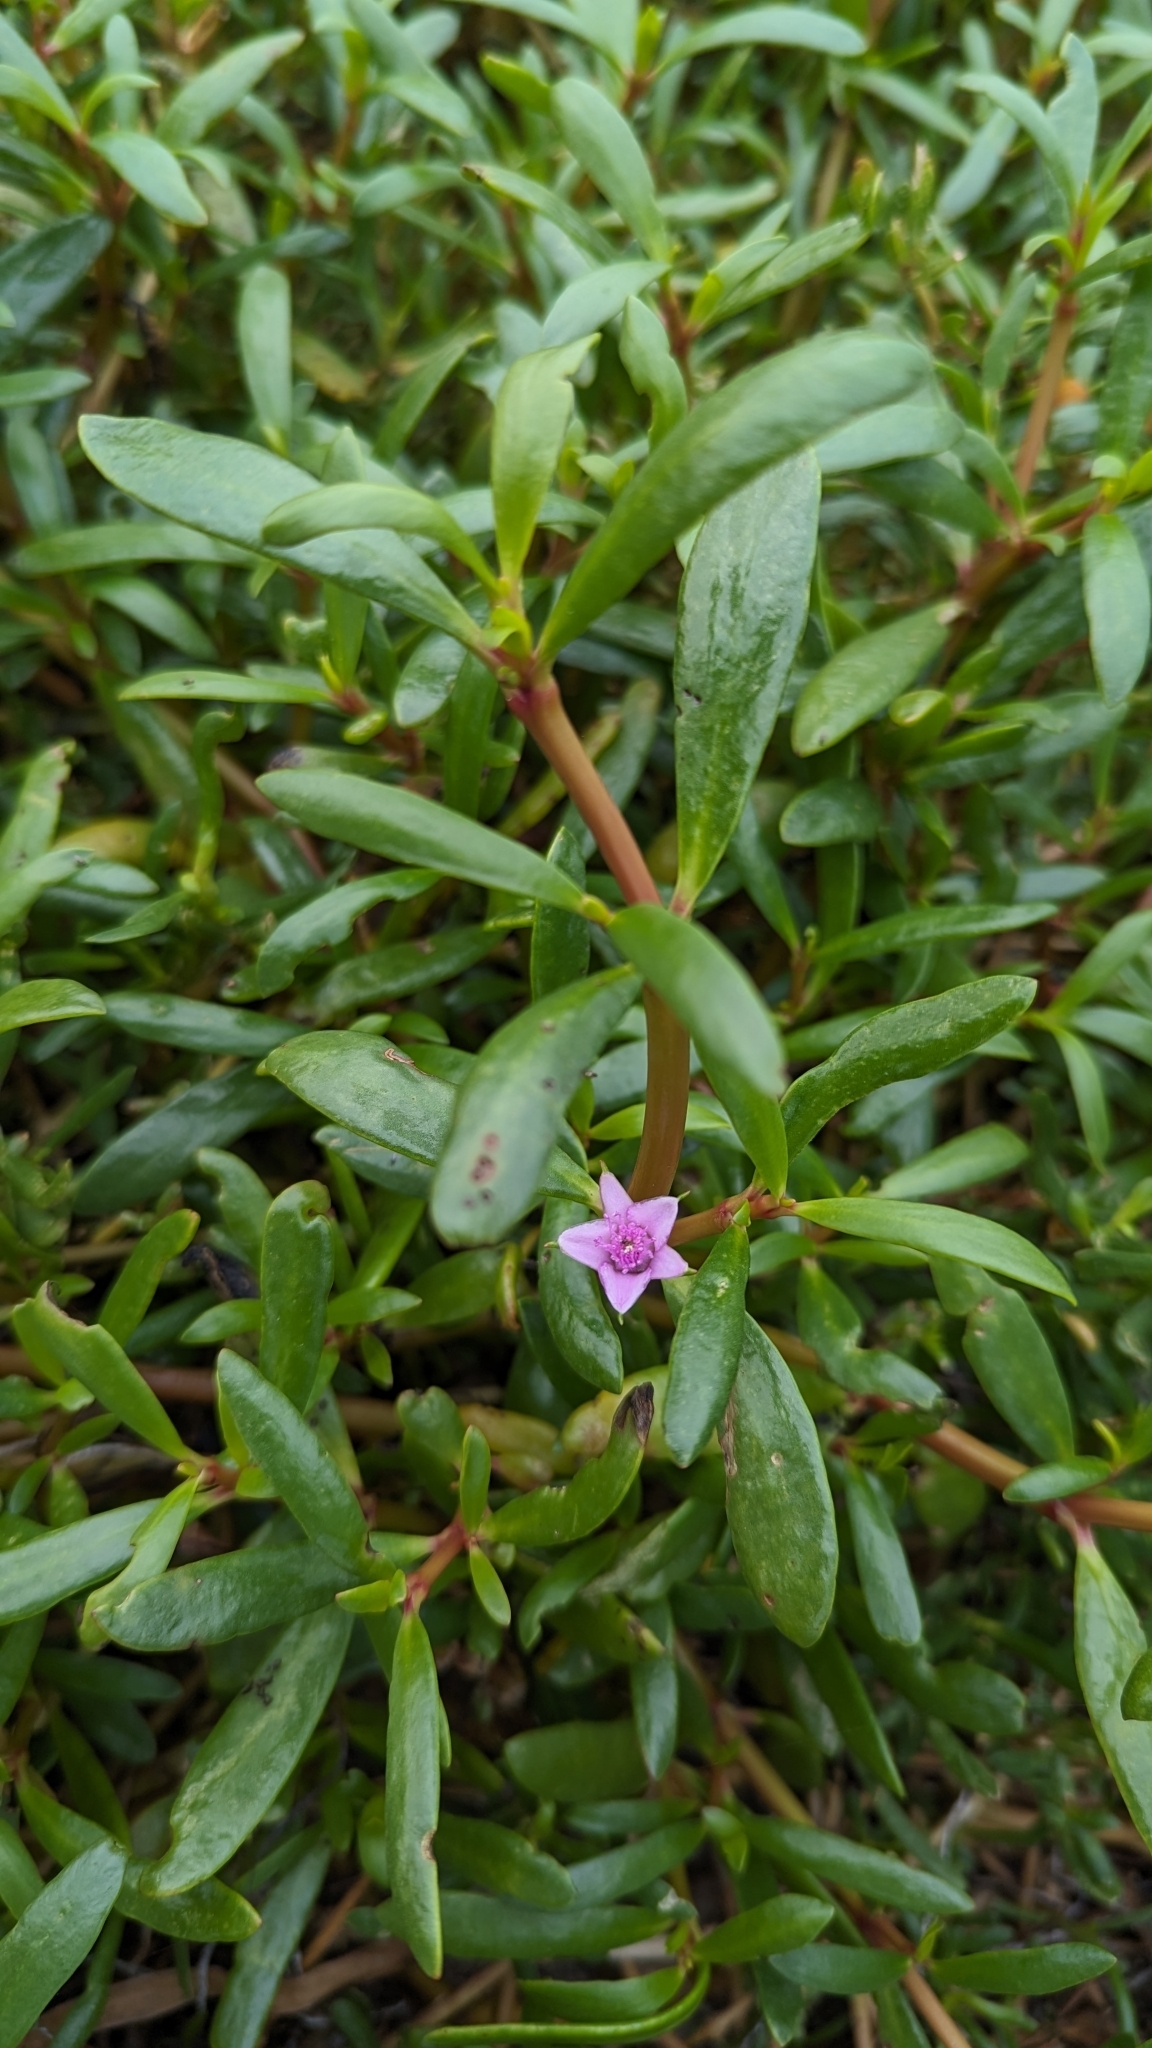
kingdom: Plantae
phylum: Tracheophyta
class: Magnoliopsida
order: Caryophyllales
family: Aizoaceae
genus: Sesuvium
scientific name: Sesuvium portulacastrum
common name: Sea-purslane
